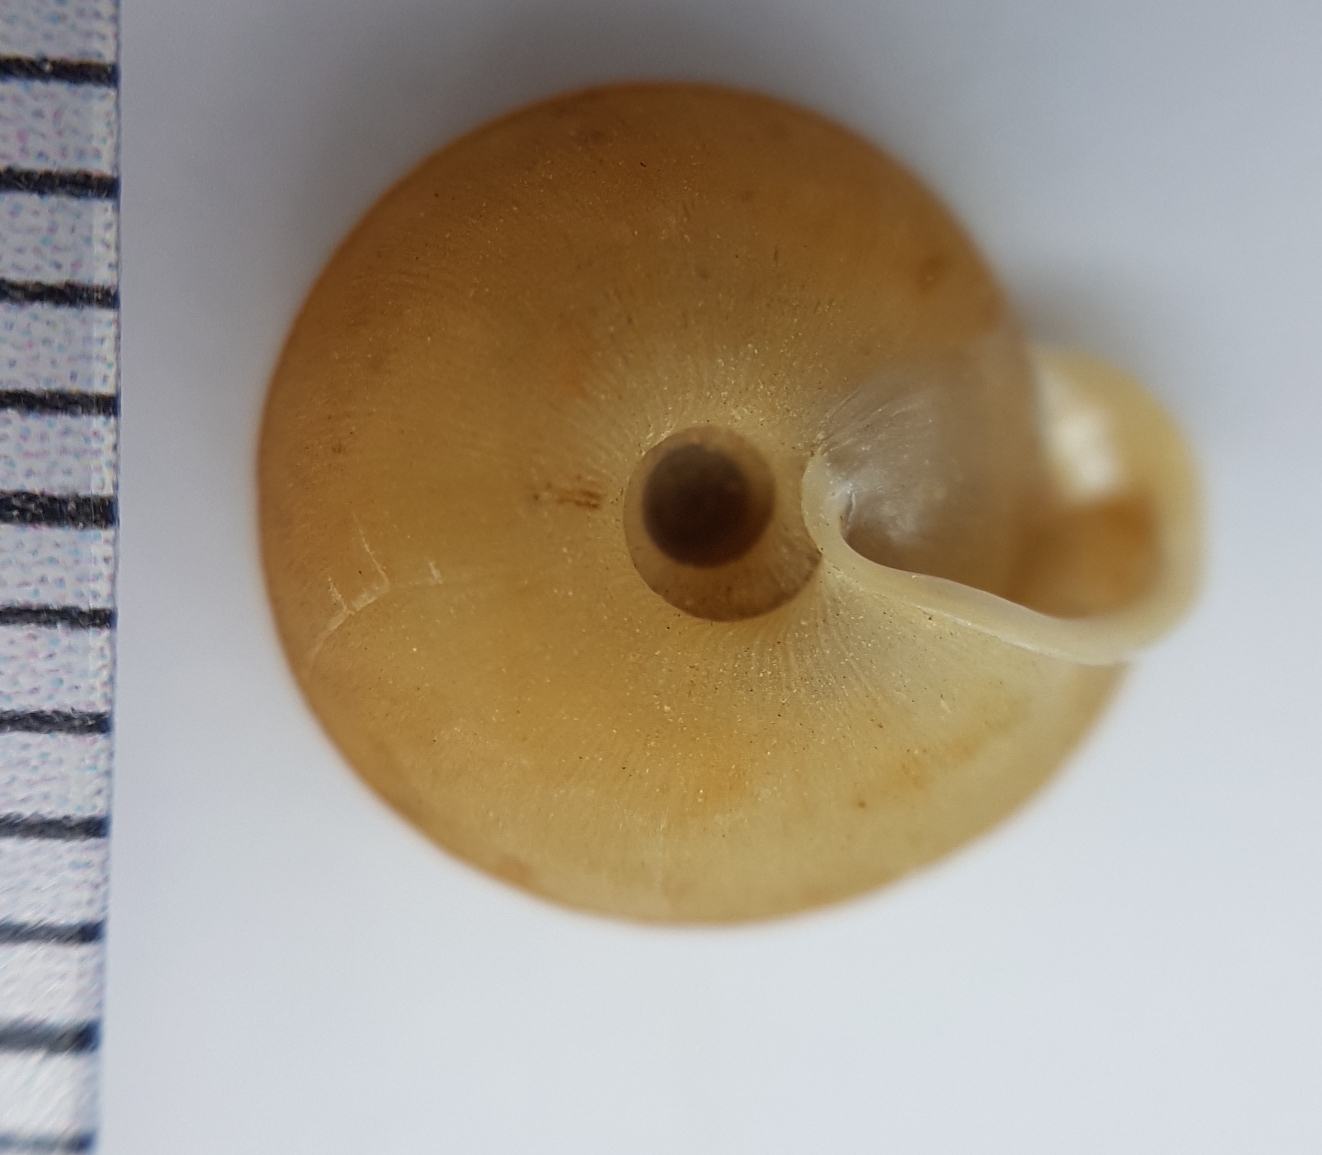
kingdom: Animalia
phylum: Mollusca
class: Gastropoda
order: Stylommatophora
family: Trissexodontidae
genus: Oestophora
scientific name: Oestophora barbula
